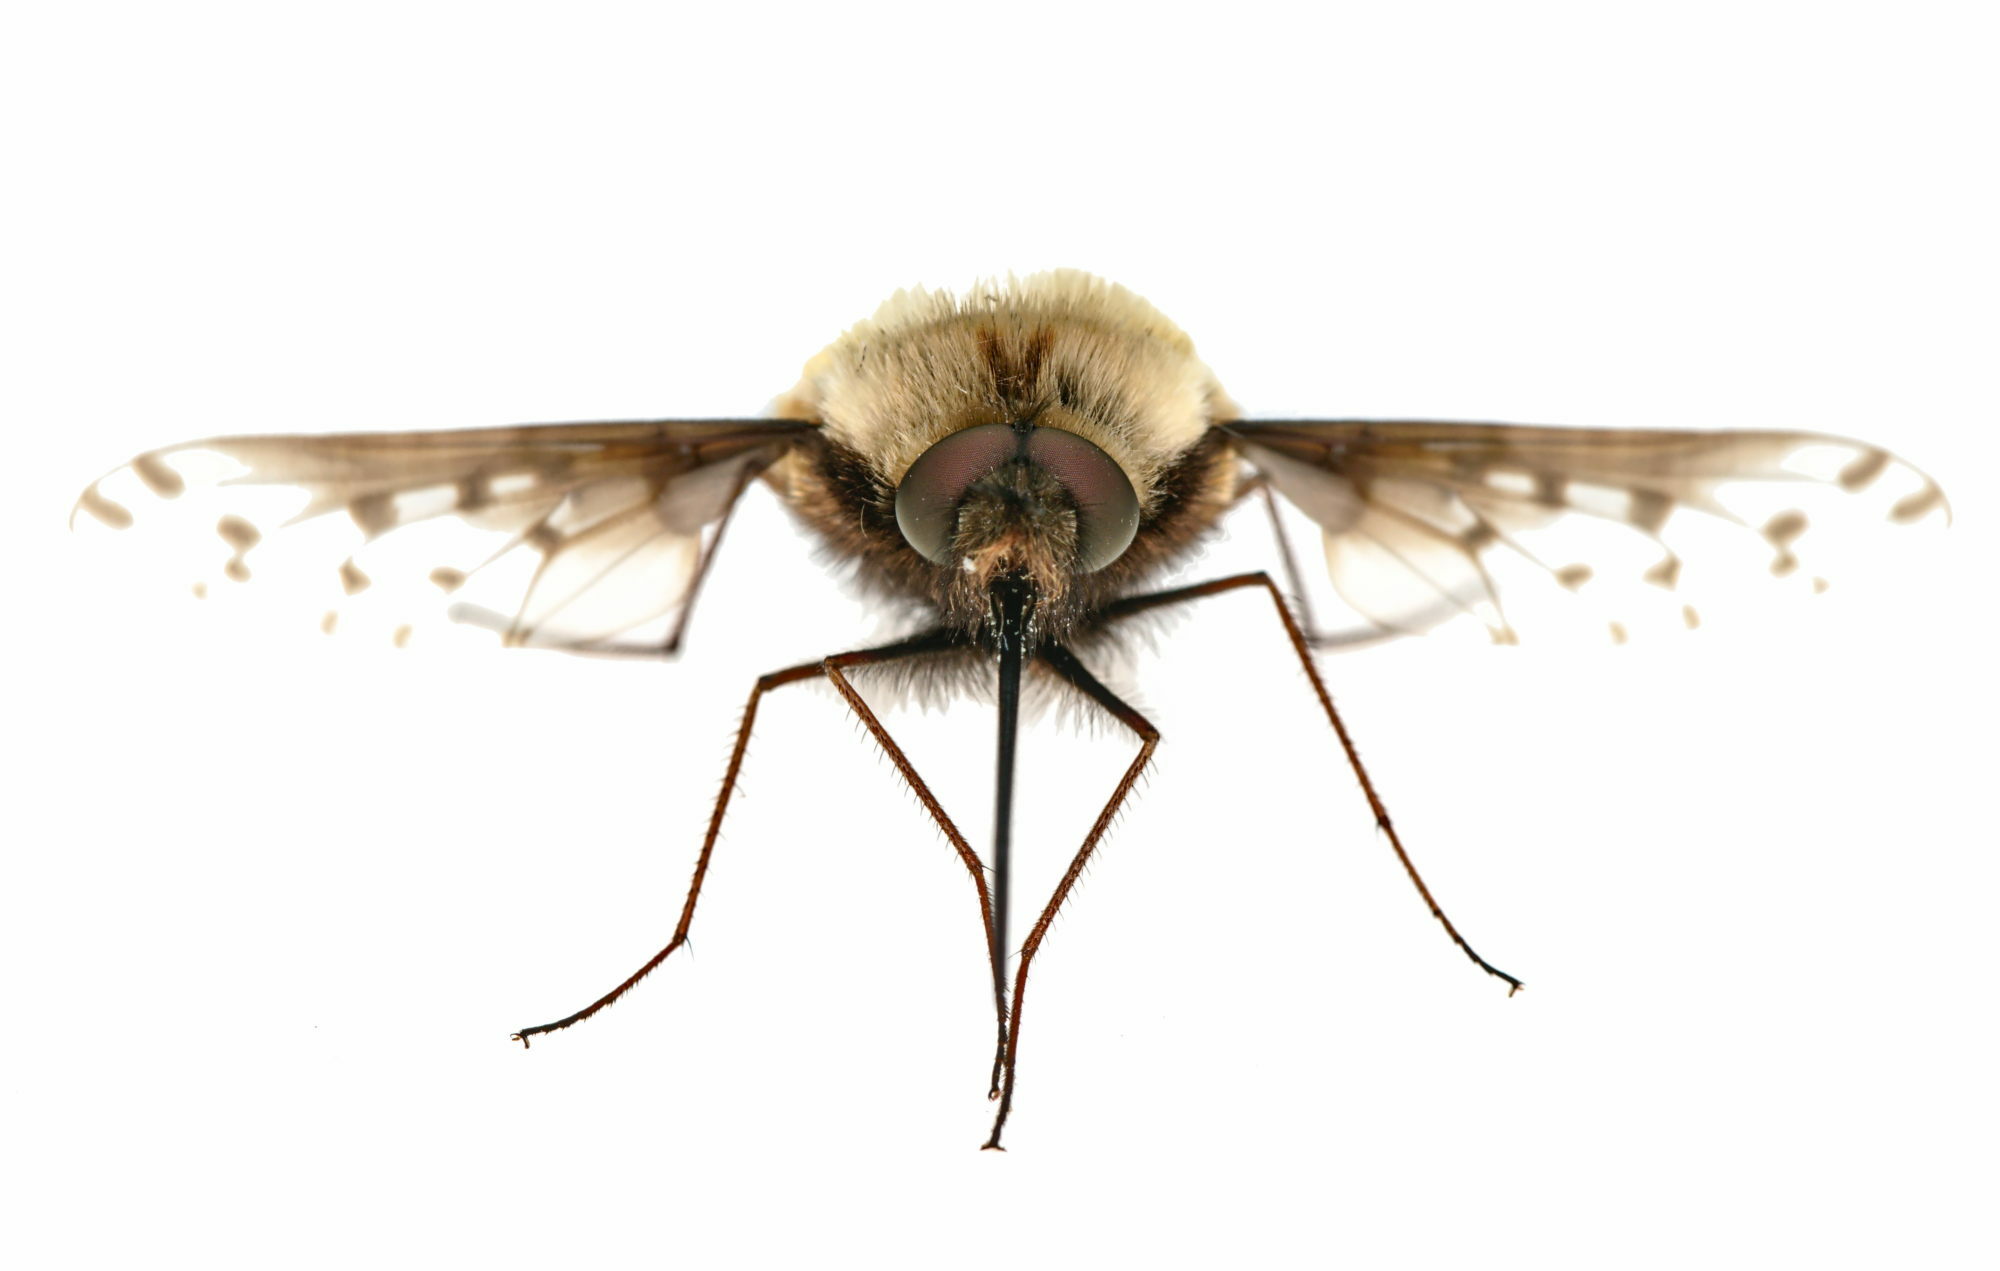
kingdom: Animalia
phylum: Arthropoda
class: Insecta
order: Diptera
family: Bombyliidae
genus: Bombylius
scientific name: Bombylius discolor
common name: Dotted bee-fly
